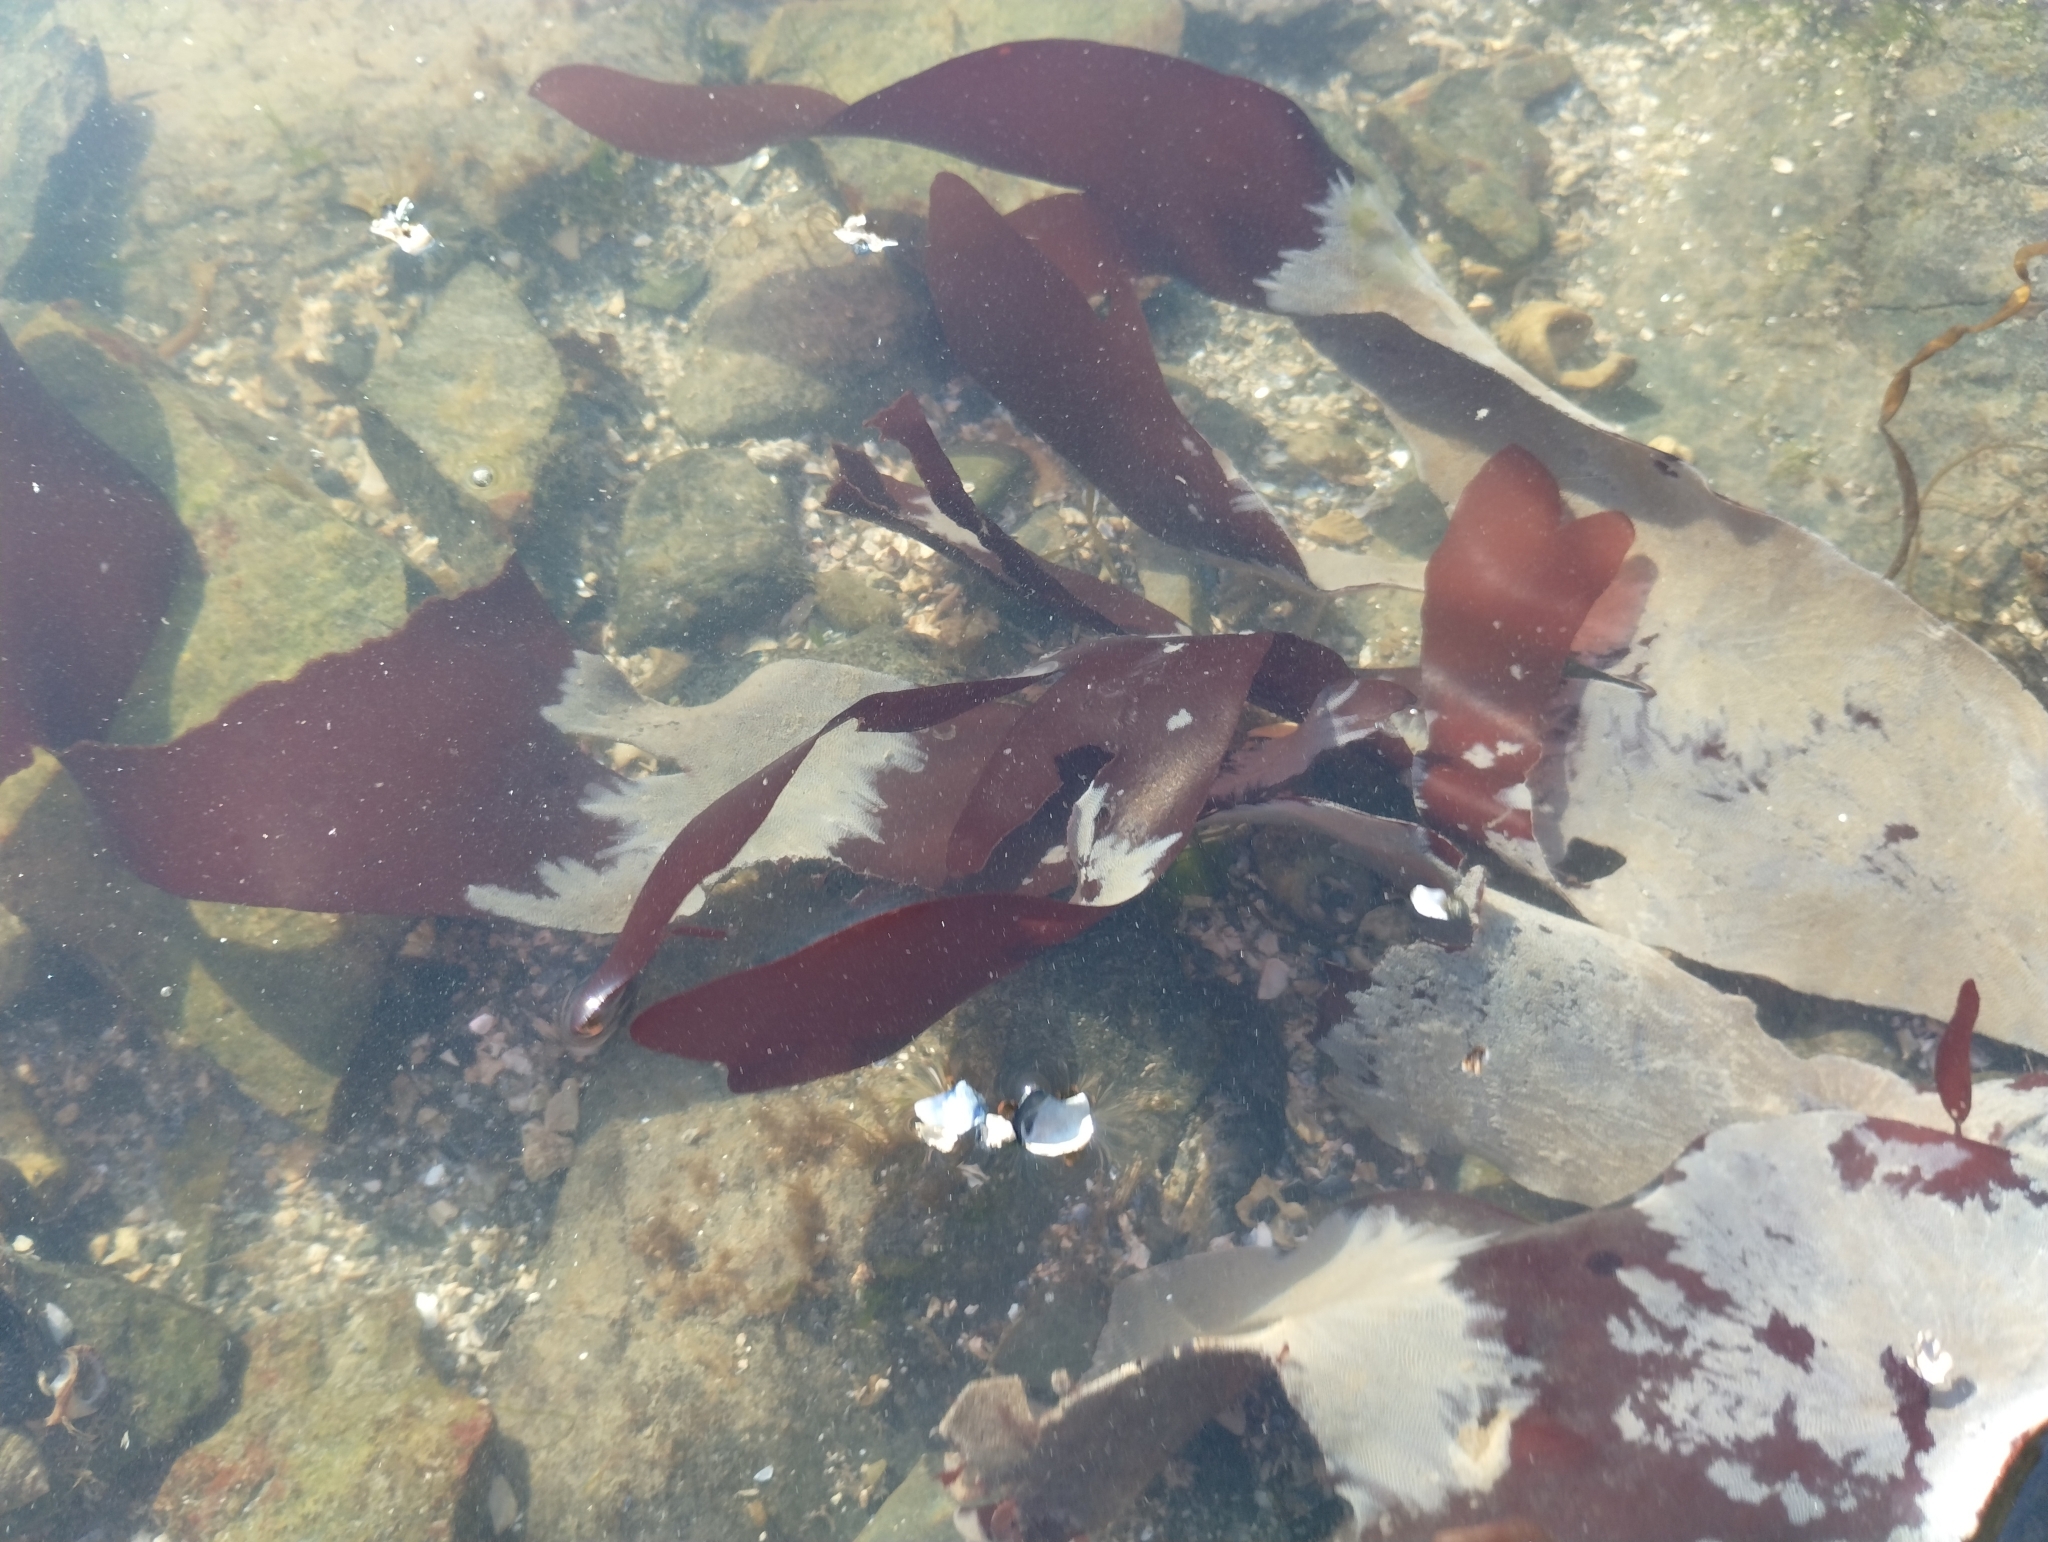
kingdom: Plantae
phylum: Rhodophyta
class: Florideophyceae
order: Palmariales
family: Palmariaceae
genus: Palmaria
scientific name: Palmaria palmata
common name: Dulse
